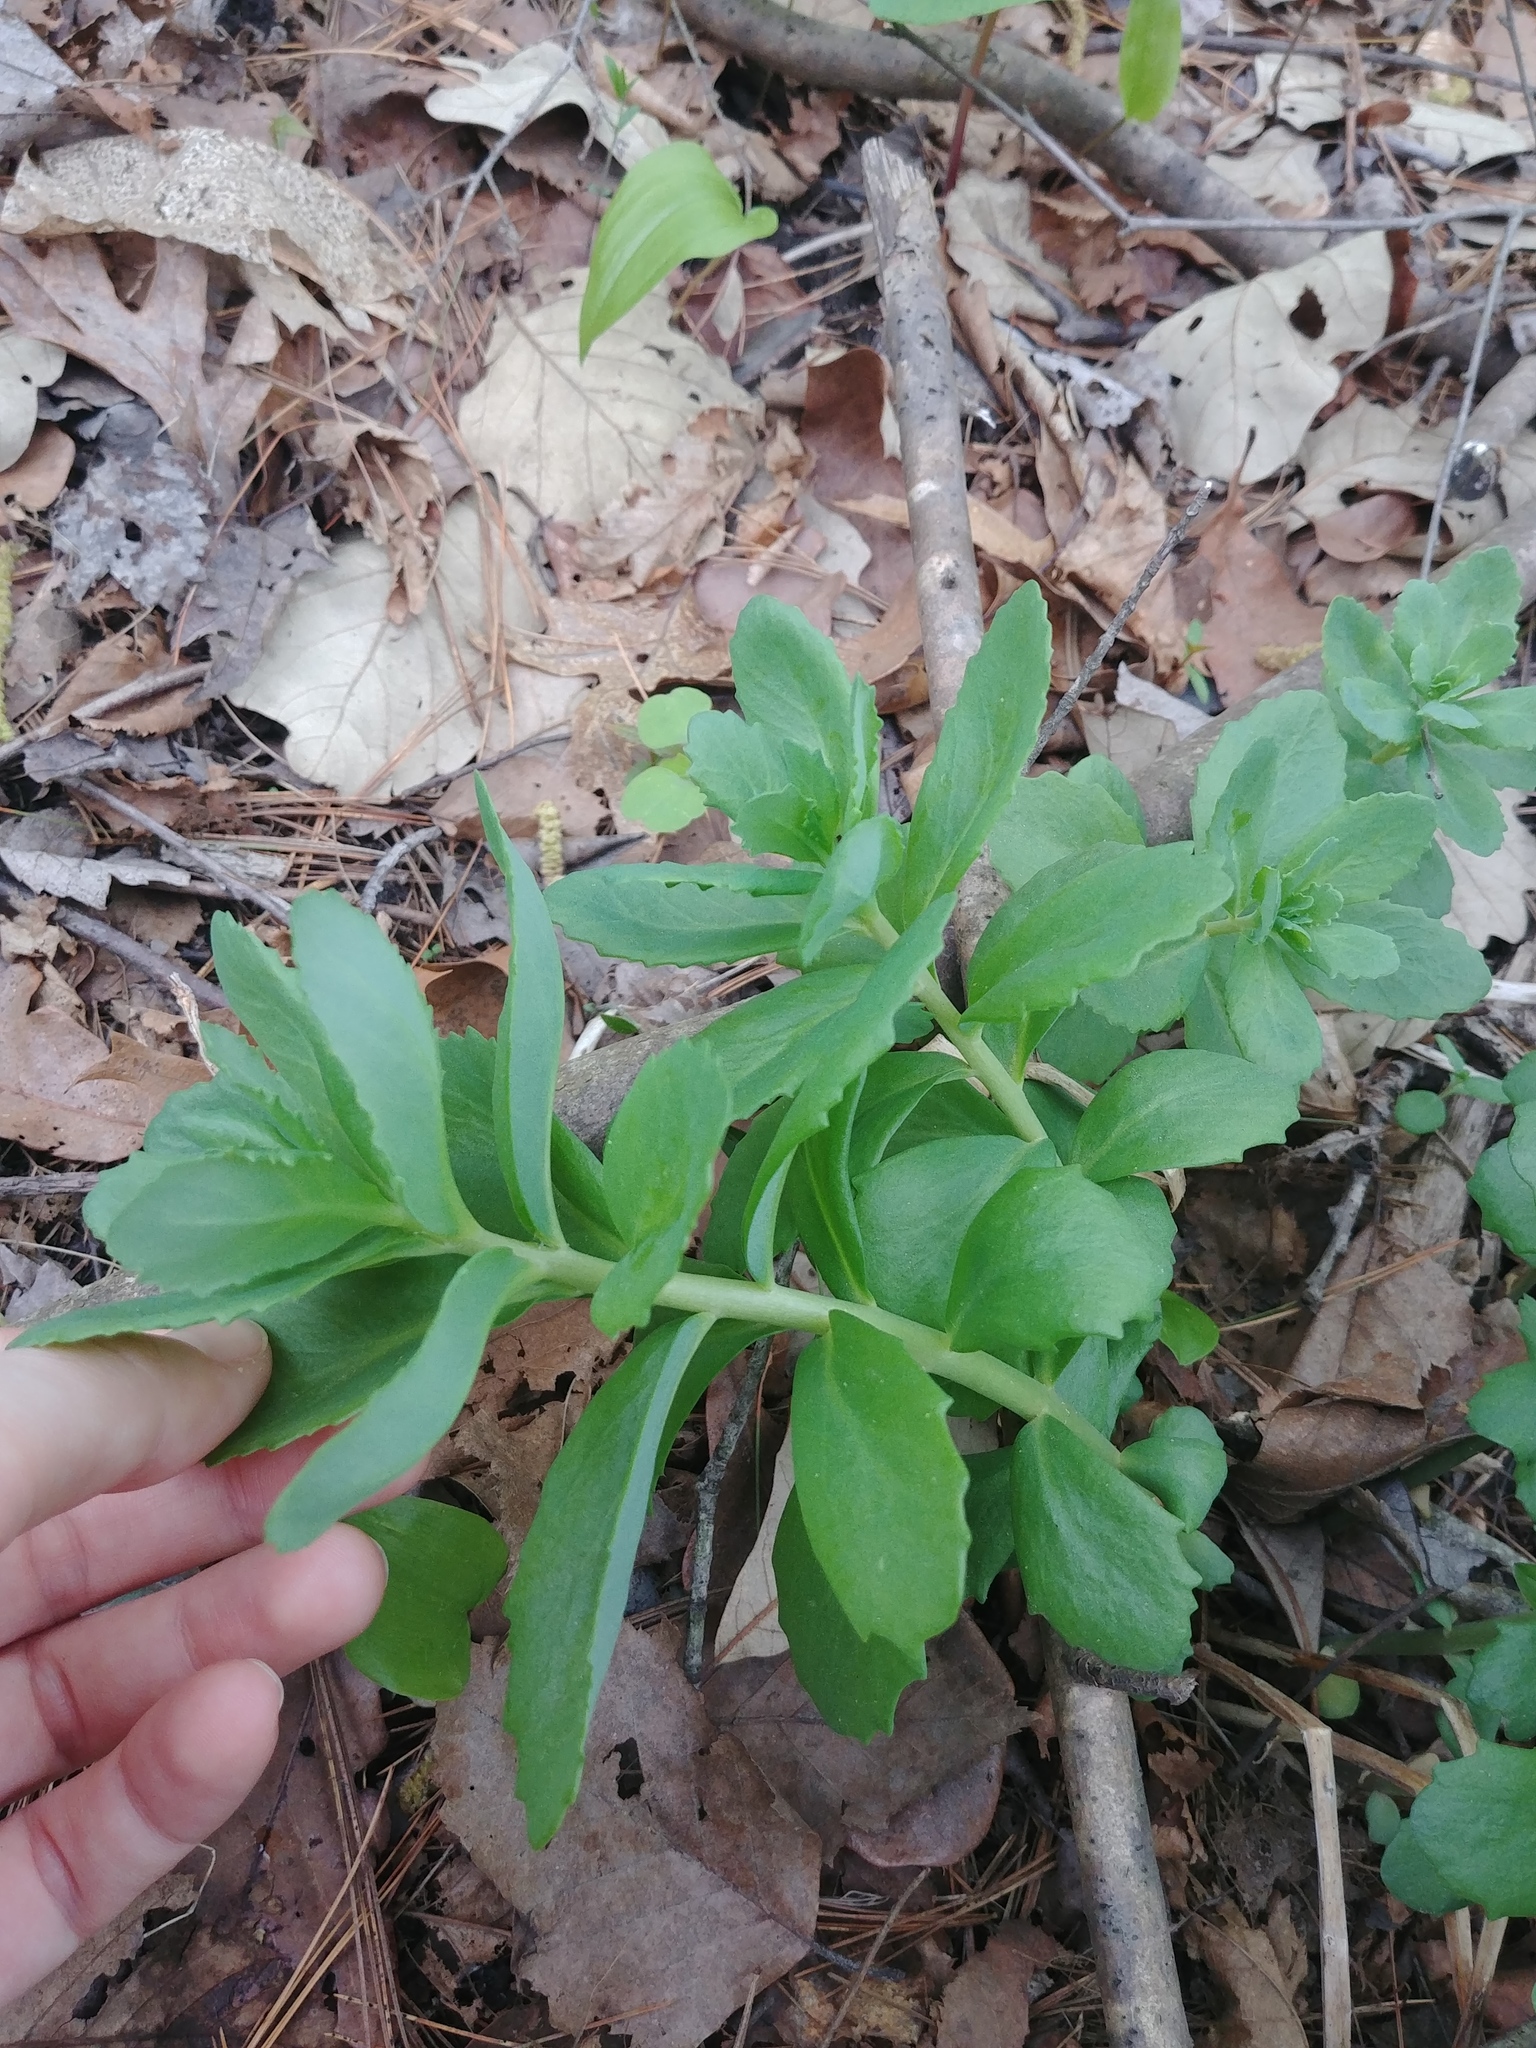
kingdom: Plantae
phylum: Tracheophyta
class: Magnoliopsida
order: Saxifragales
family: Crassulaceae
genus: Hylotelephium
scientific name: Hylotelephium telephium
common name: Live-forever
